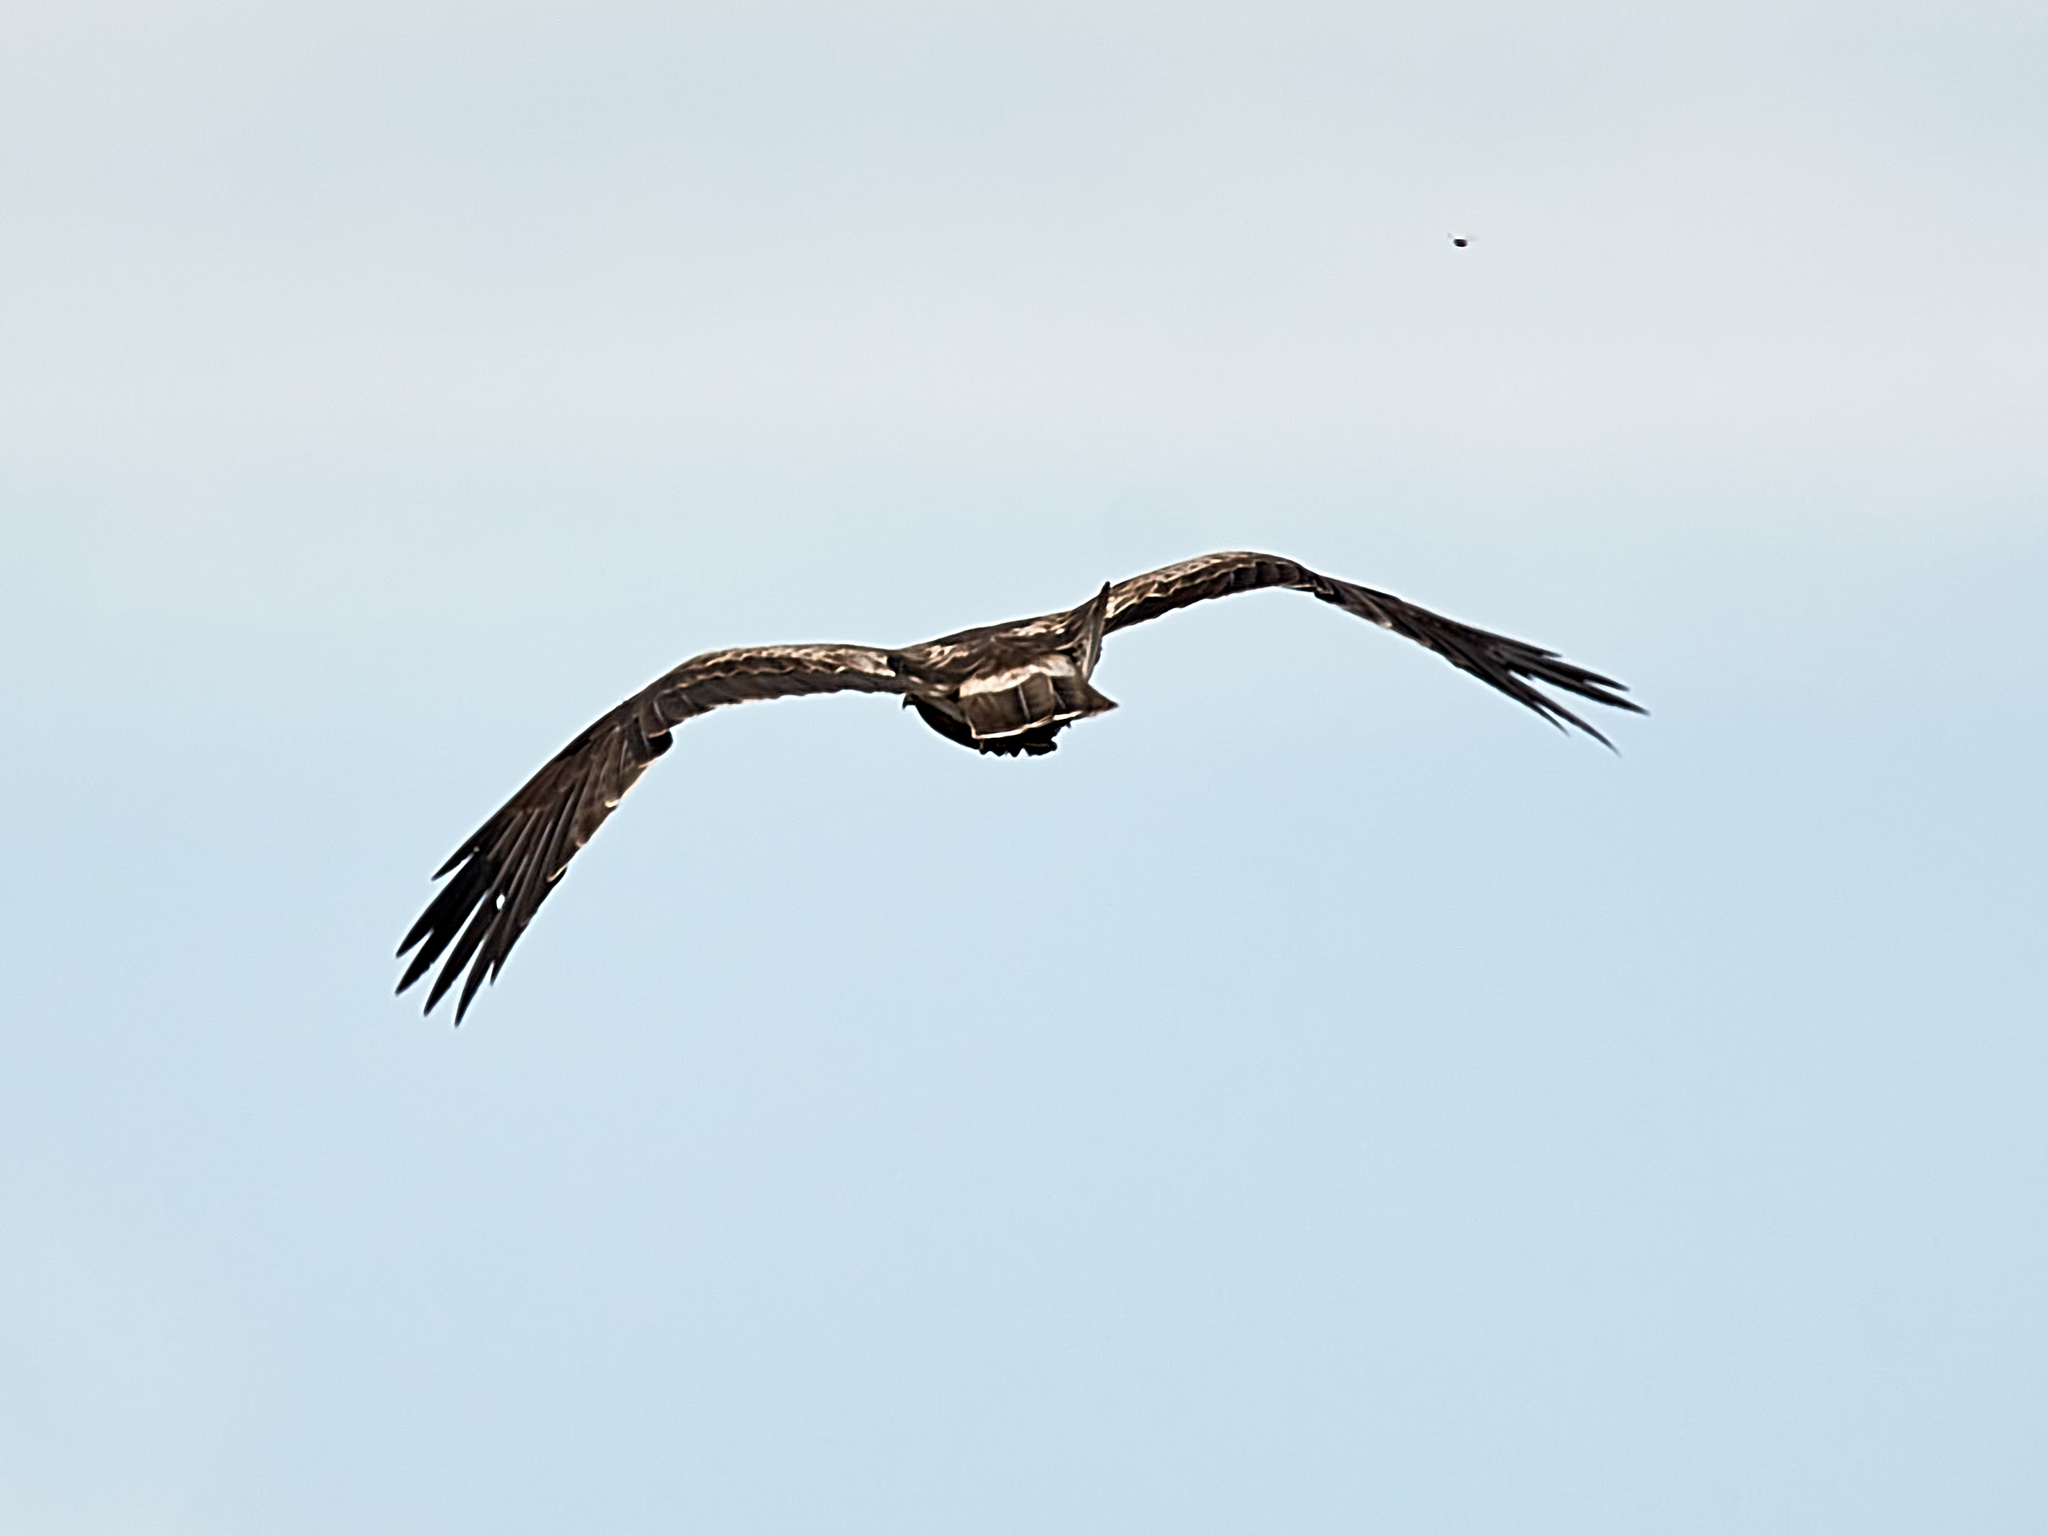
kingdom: Animalia
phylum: Chordata
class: Aves
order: Accipitriformes
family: Accipitridae
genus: Hieraaetus
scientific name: Hieraaetus pennatus
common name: Booted eagle
